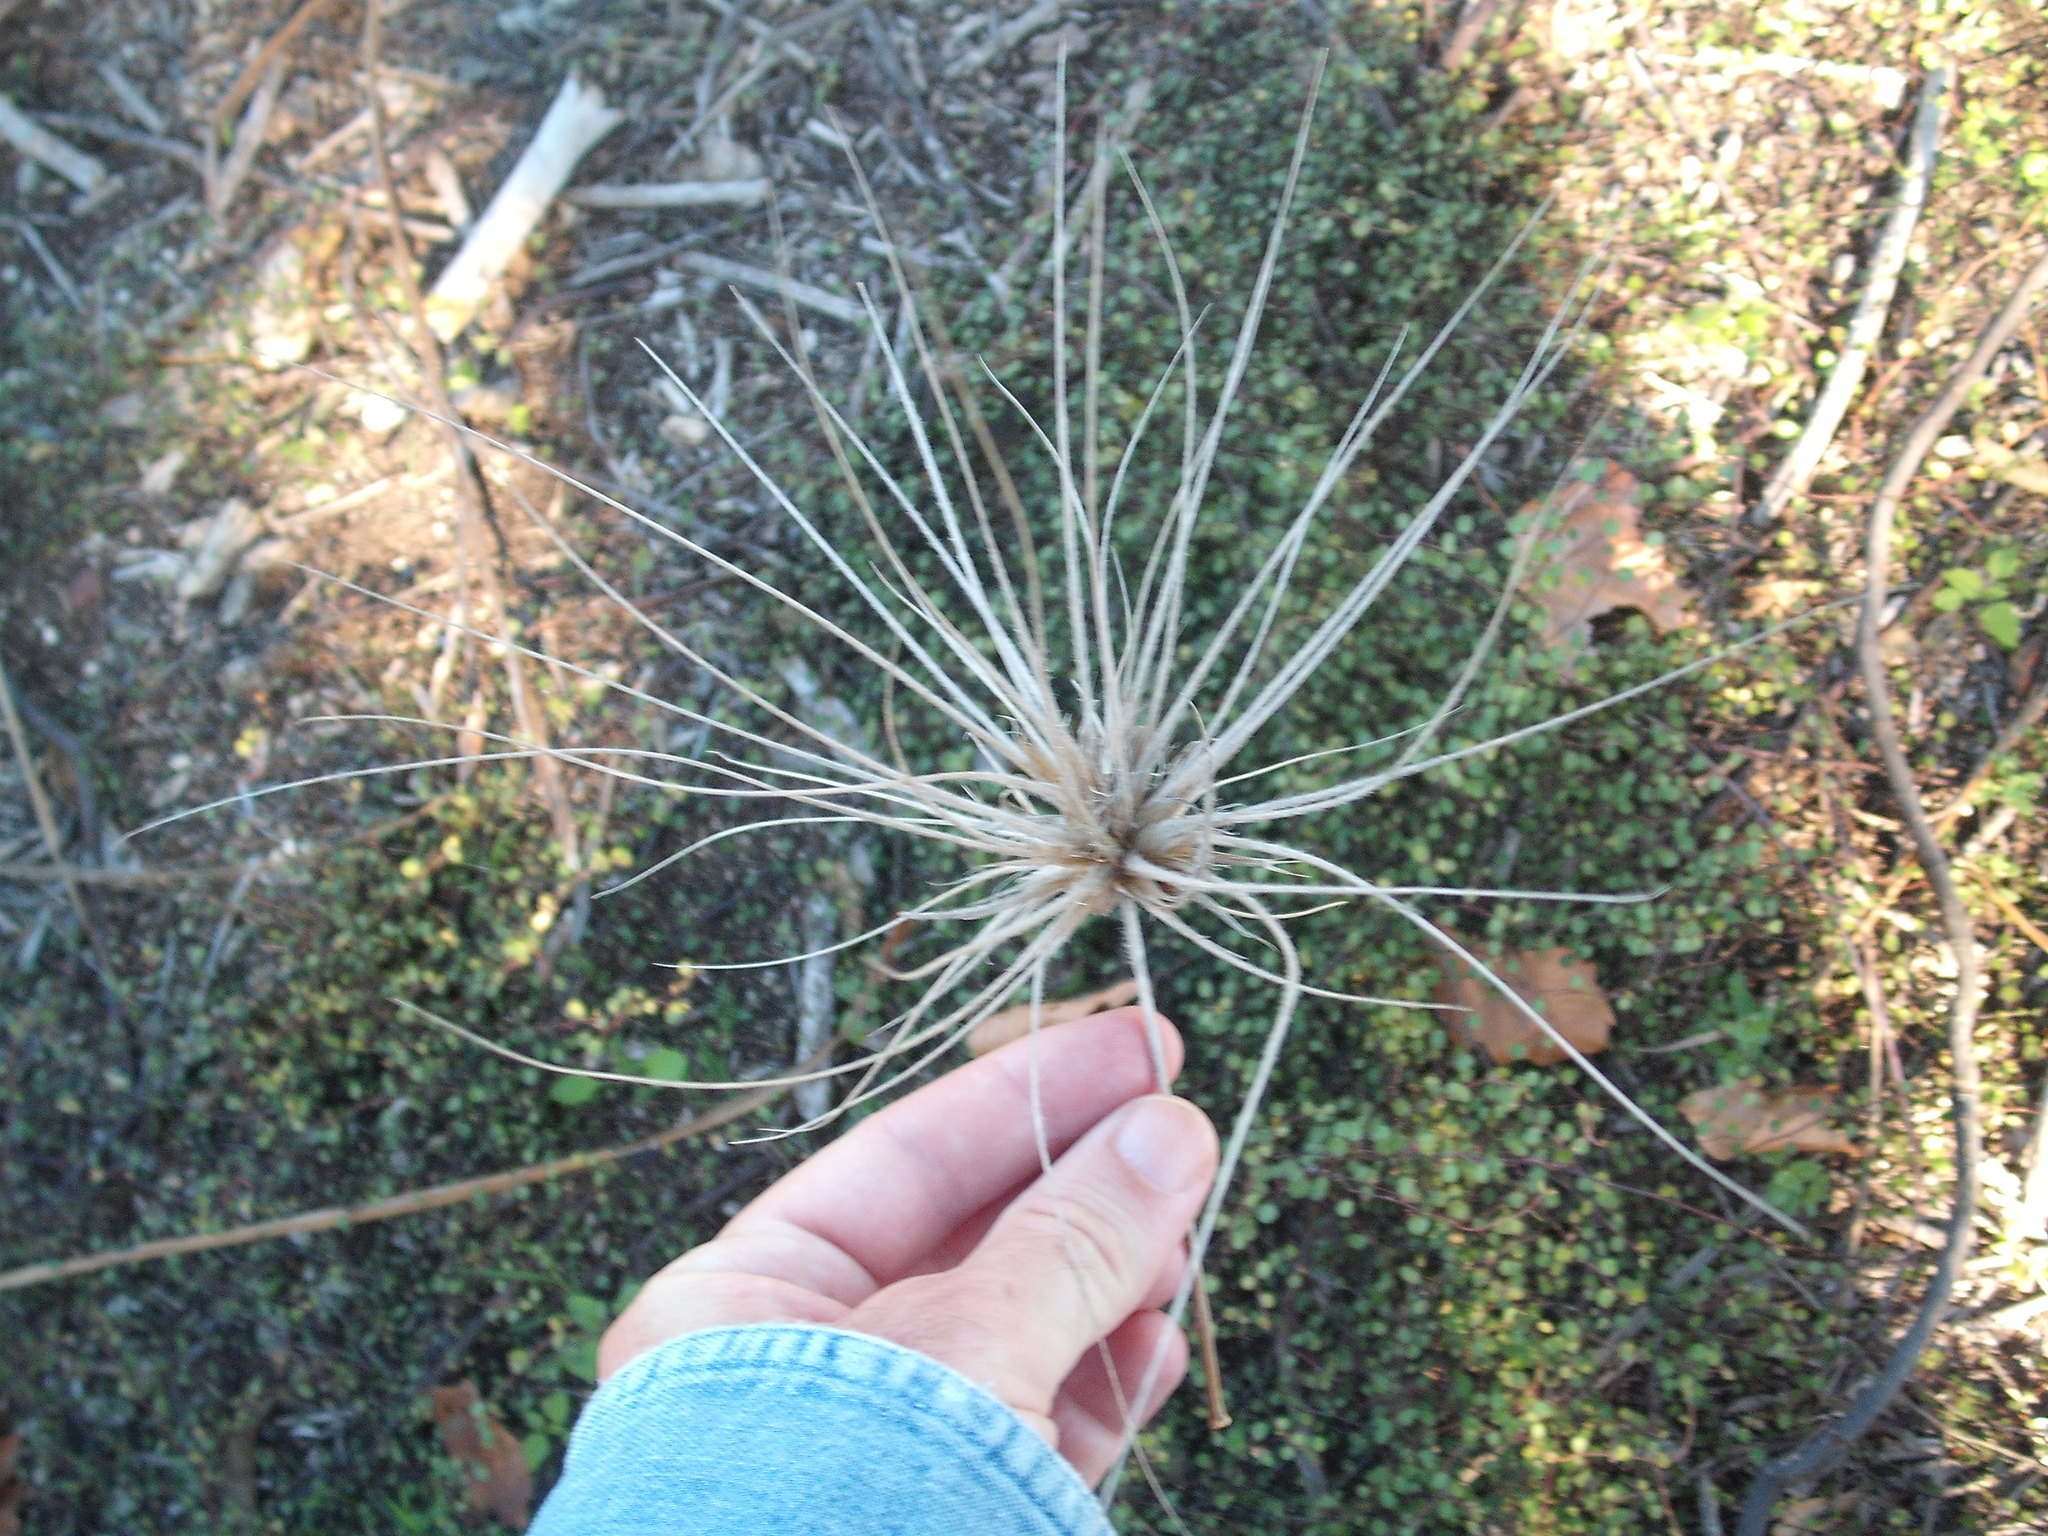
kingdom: Plantae
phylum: Tracheophyta
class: Liliopsida
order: Poales
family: Poaceae
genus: Spinifex
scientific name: Spinifex sericeus
